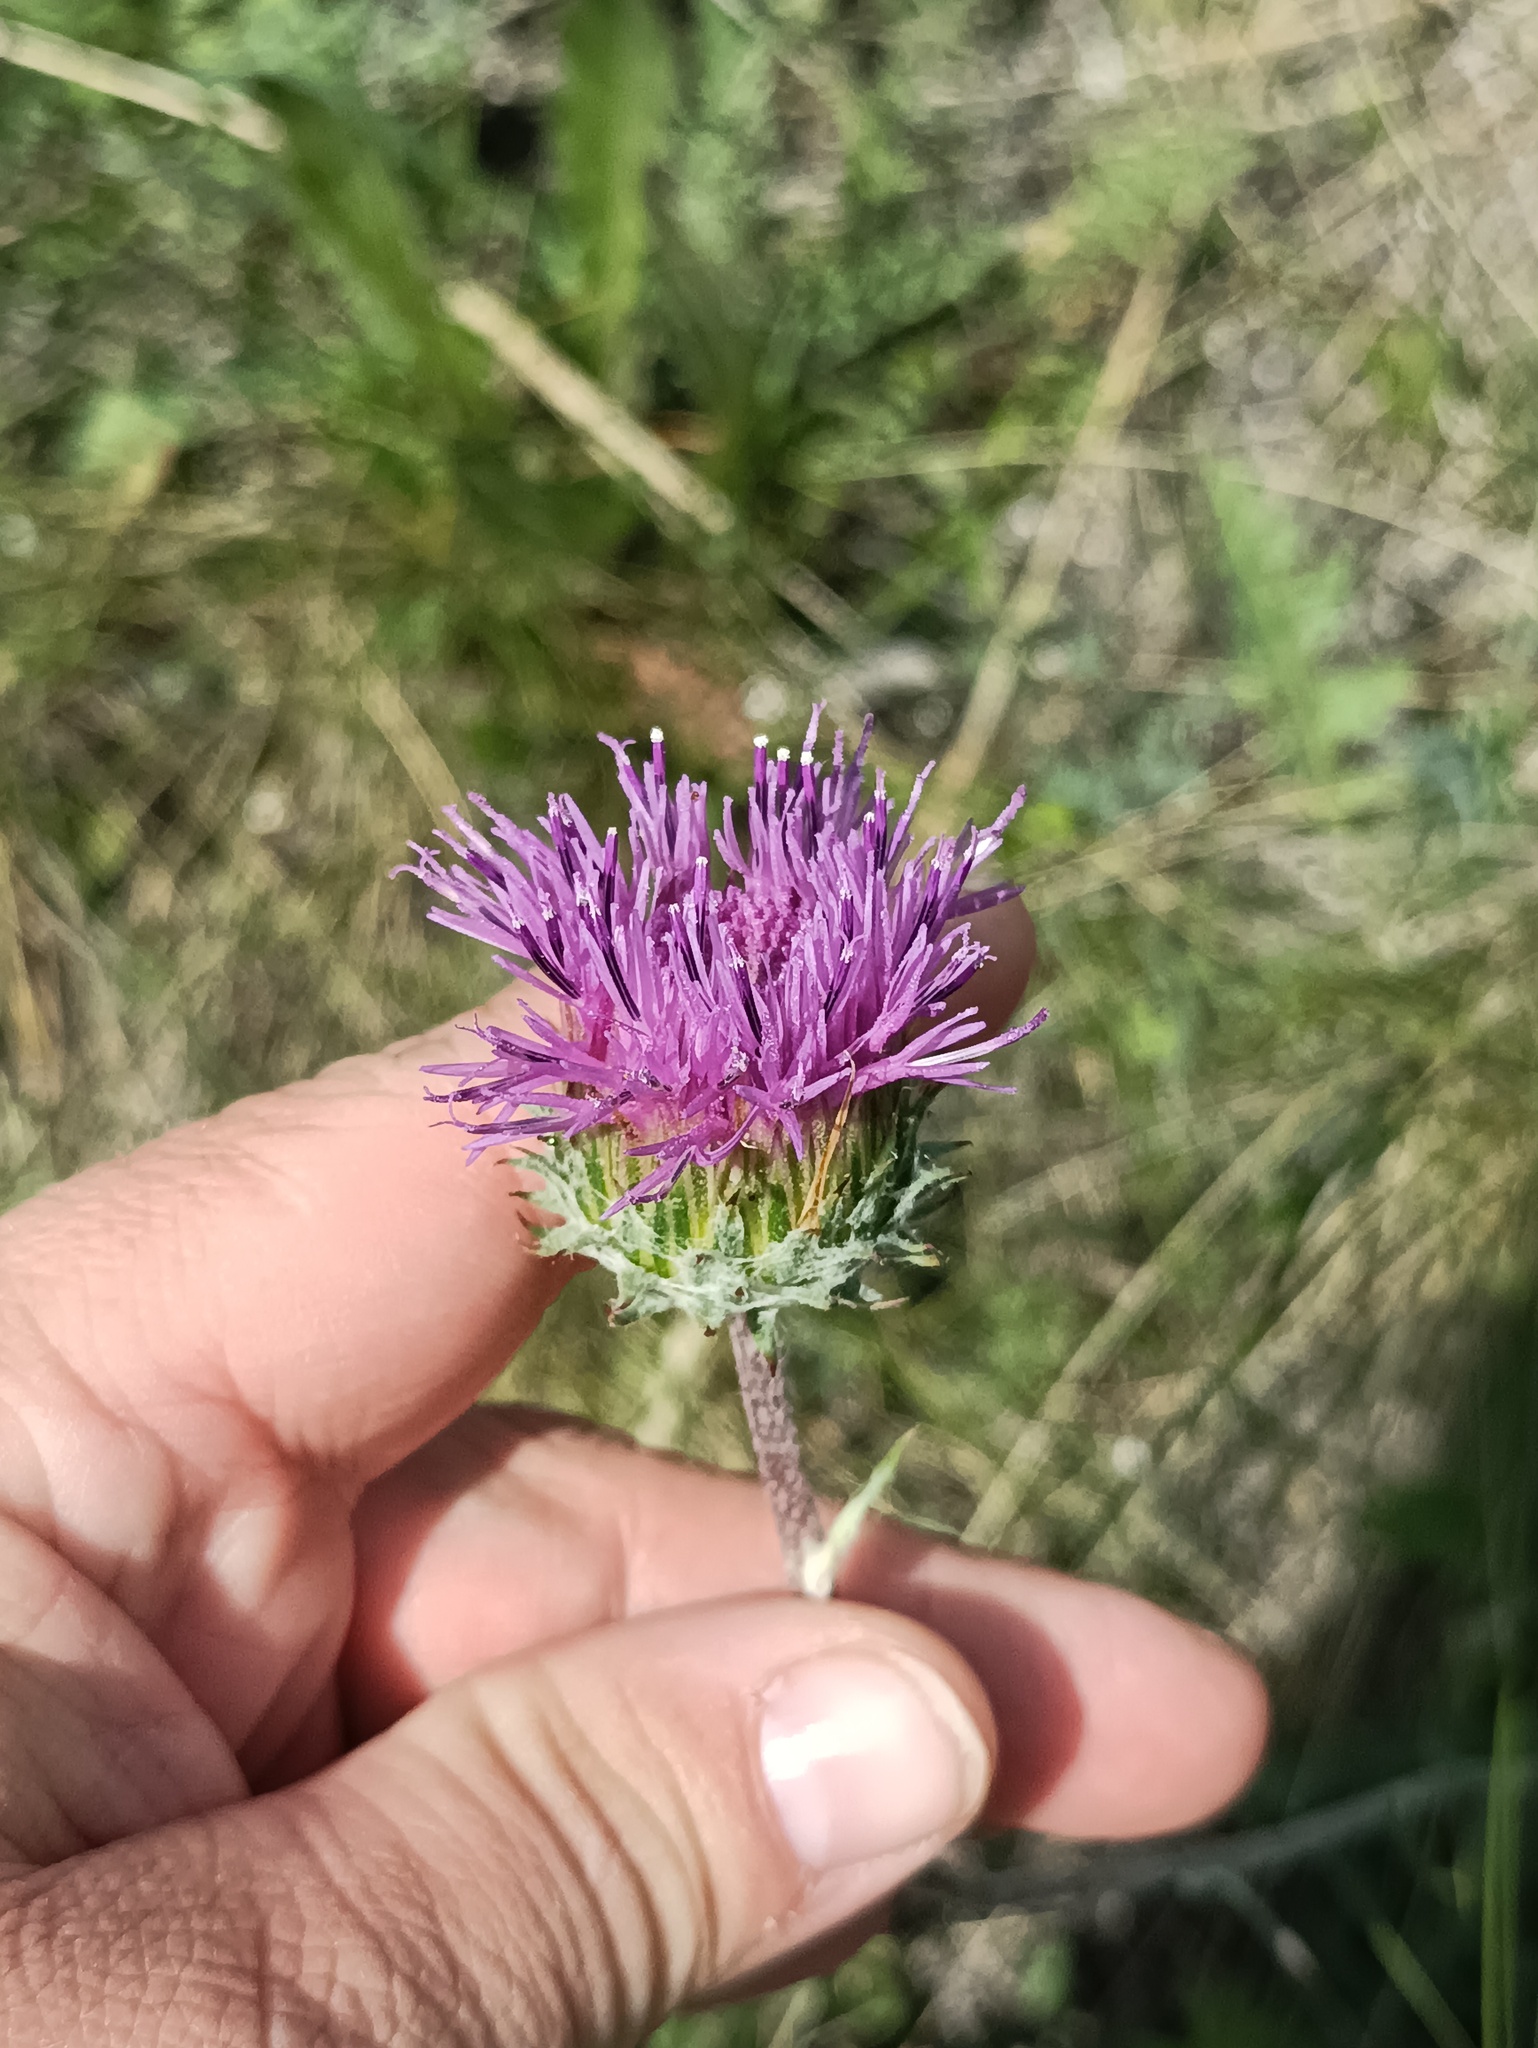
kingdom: Plantae
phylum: Tracheophyta
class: Magnoliopsida
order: Asterales
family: Asteraceae
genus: Jurinea
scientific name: Jurinea ledebourii
